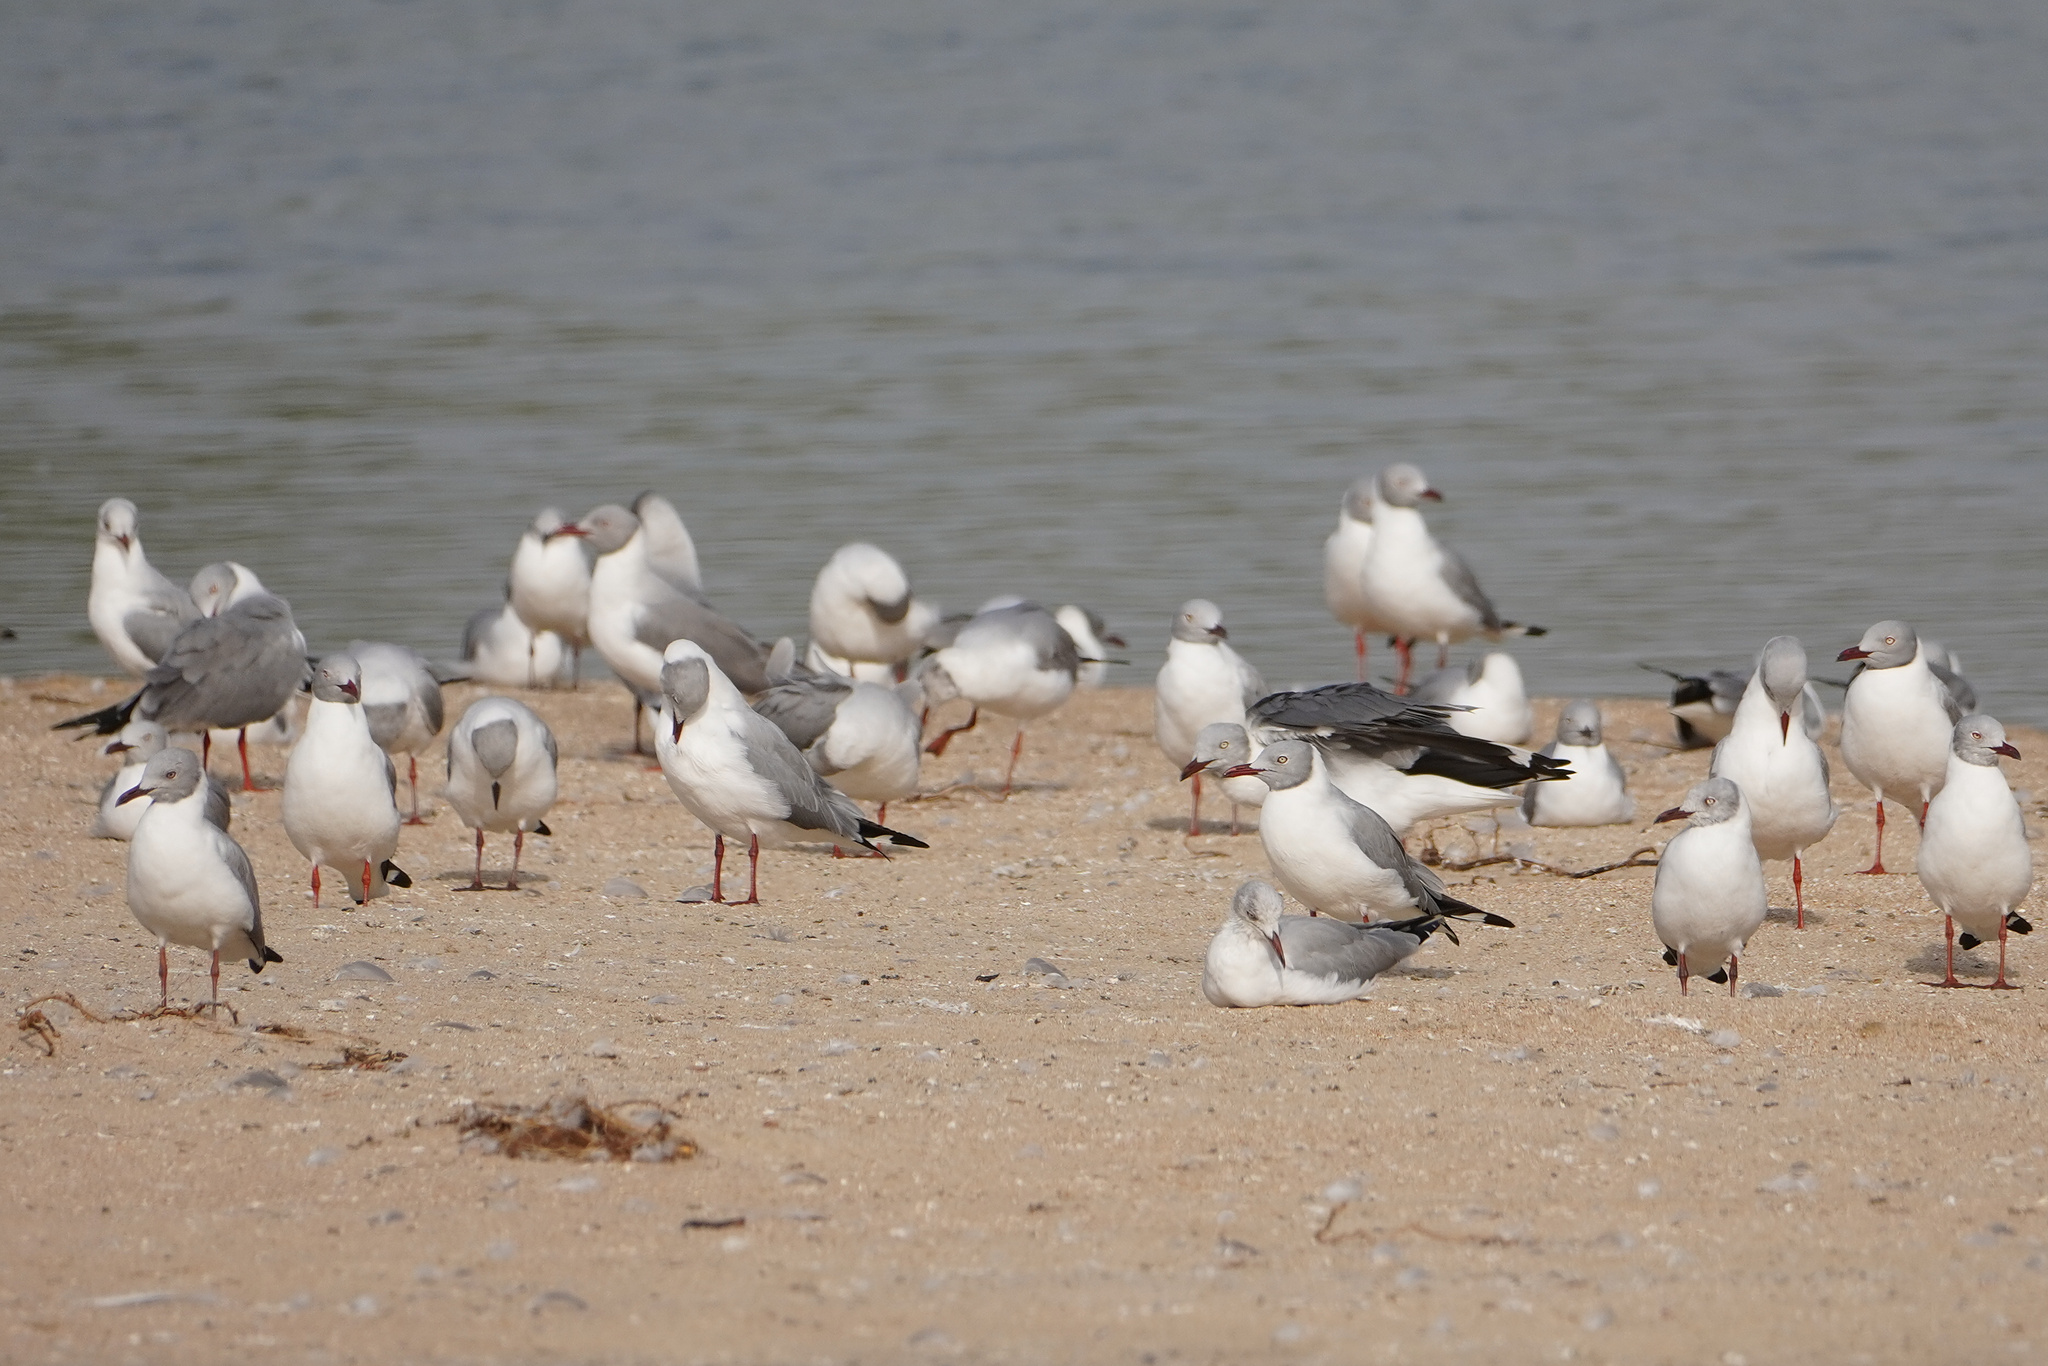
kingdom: Animalia
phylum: Chordata
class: Aves
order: Charadriiformes
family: Laridae
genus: Chroicocephalus
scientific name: Chroicocephalus cirrocephalus
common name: Grey-headed gull
